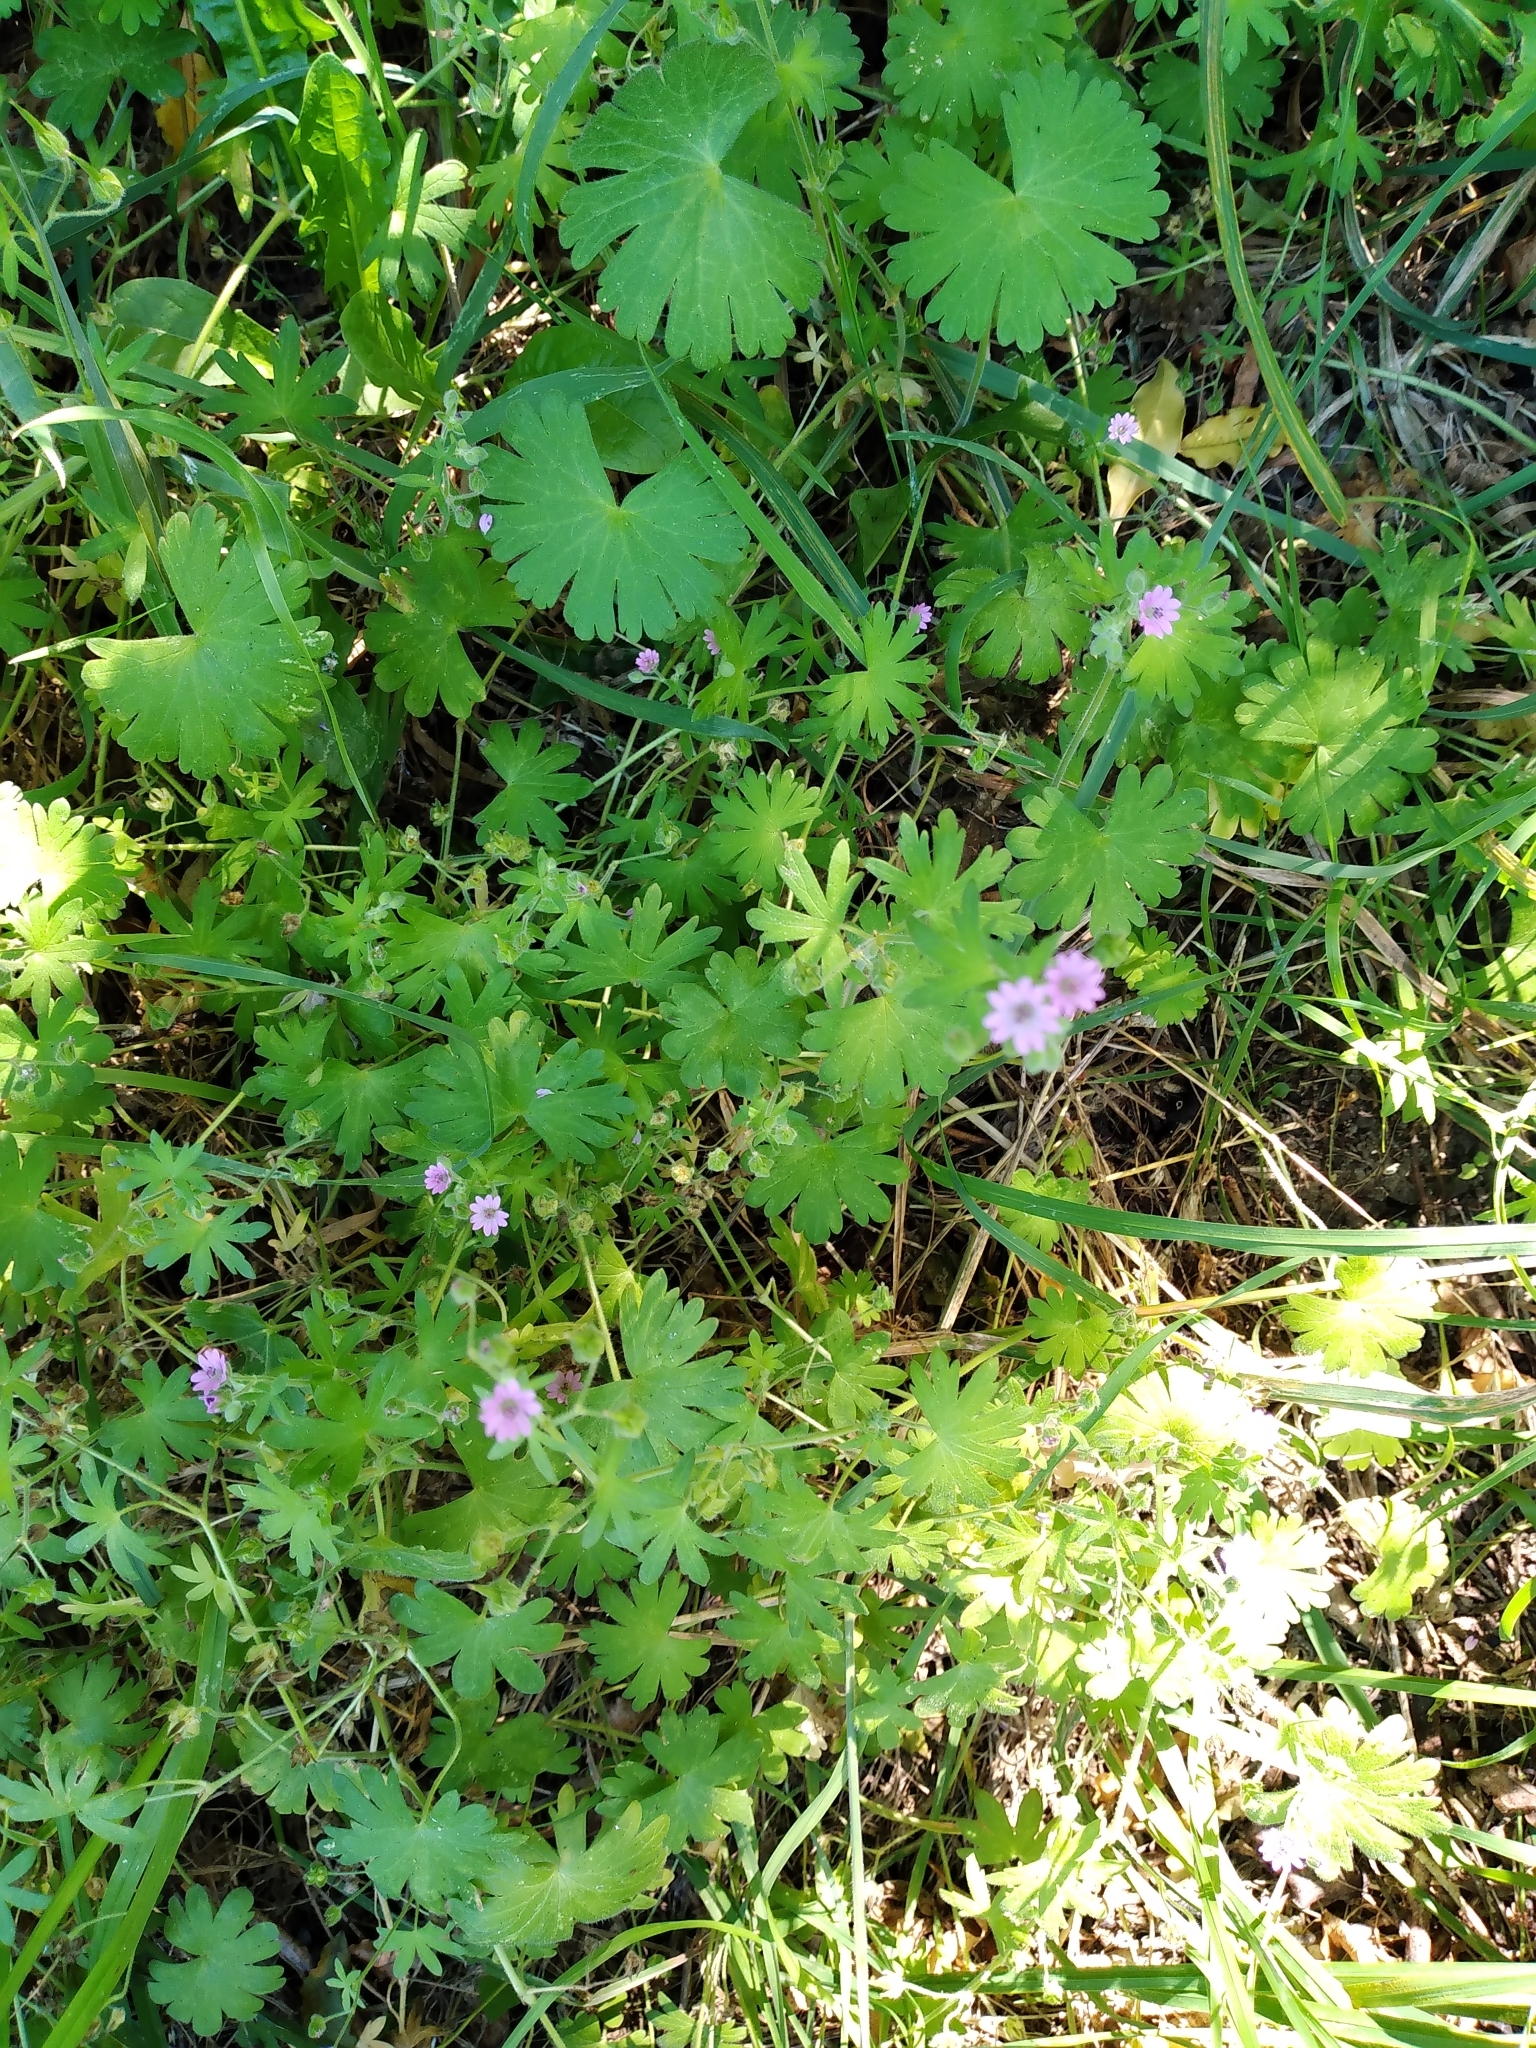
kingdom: Plantae
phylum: Tracheophyta
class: Magnoliopsida
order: Geraniales
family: Geraniaceae
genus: Geranium
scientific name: Geranium molle
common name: Dove's-foot crane's-bill
